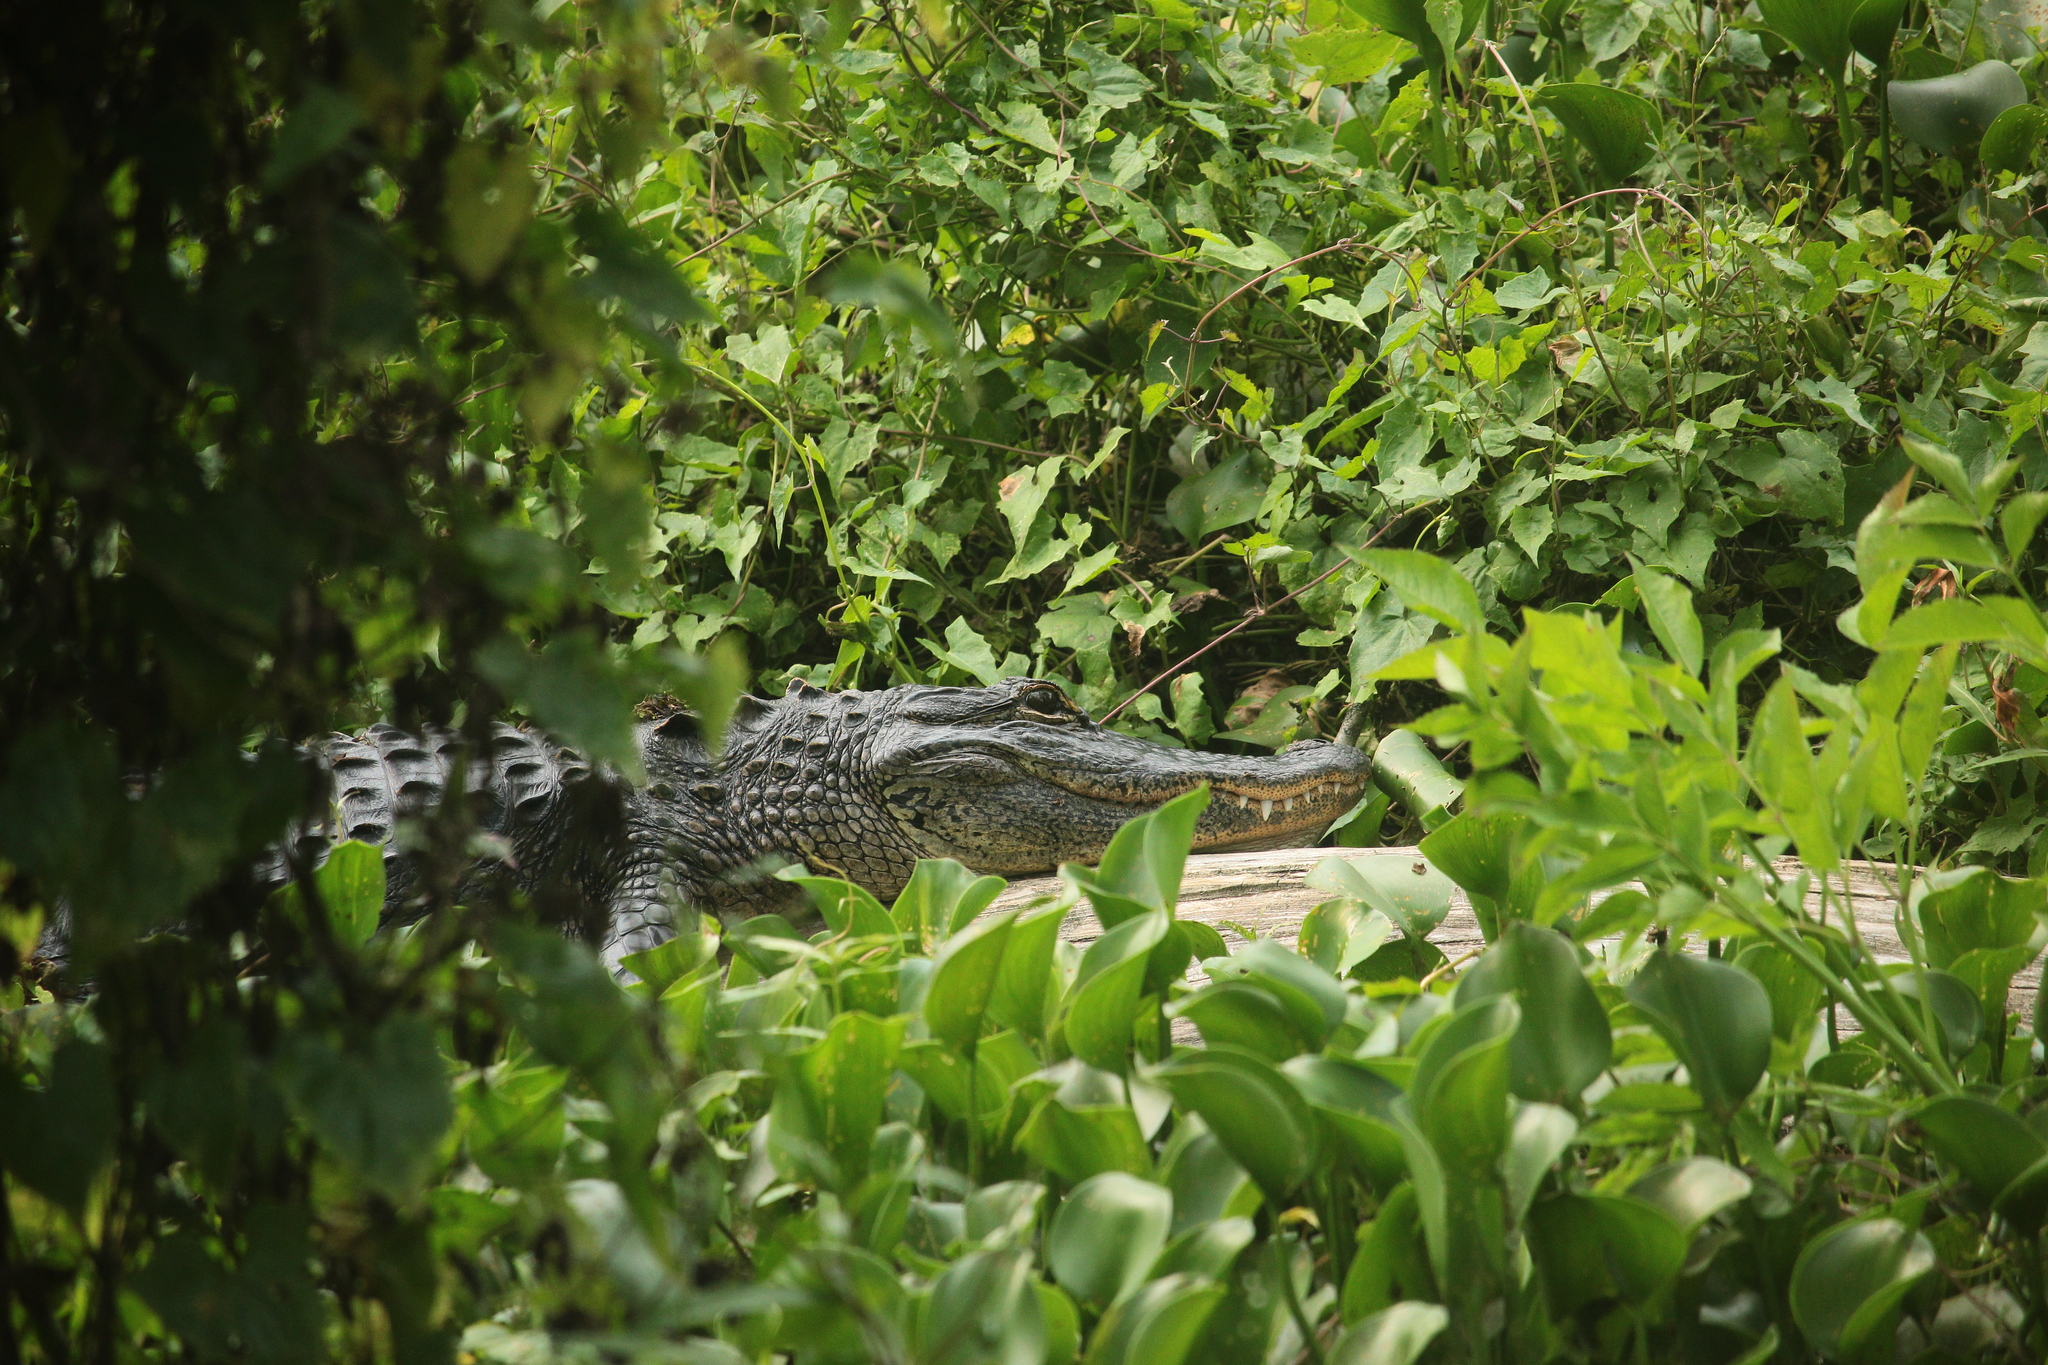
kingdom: Animalia
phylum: Chordata
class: Crocodylia
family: Alligatoridae
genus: Alligator
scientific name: Alligator mississippiensis
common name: American alligator
